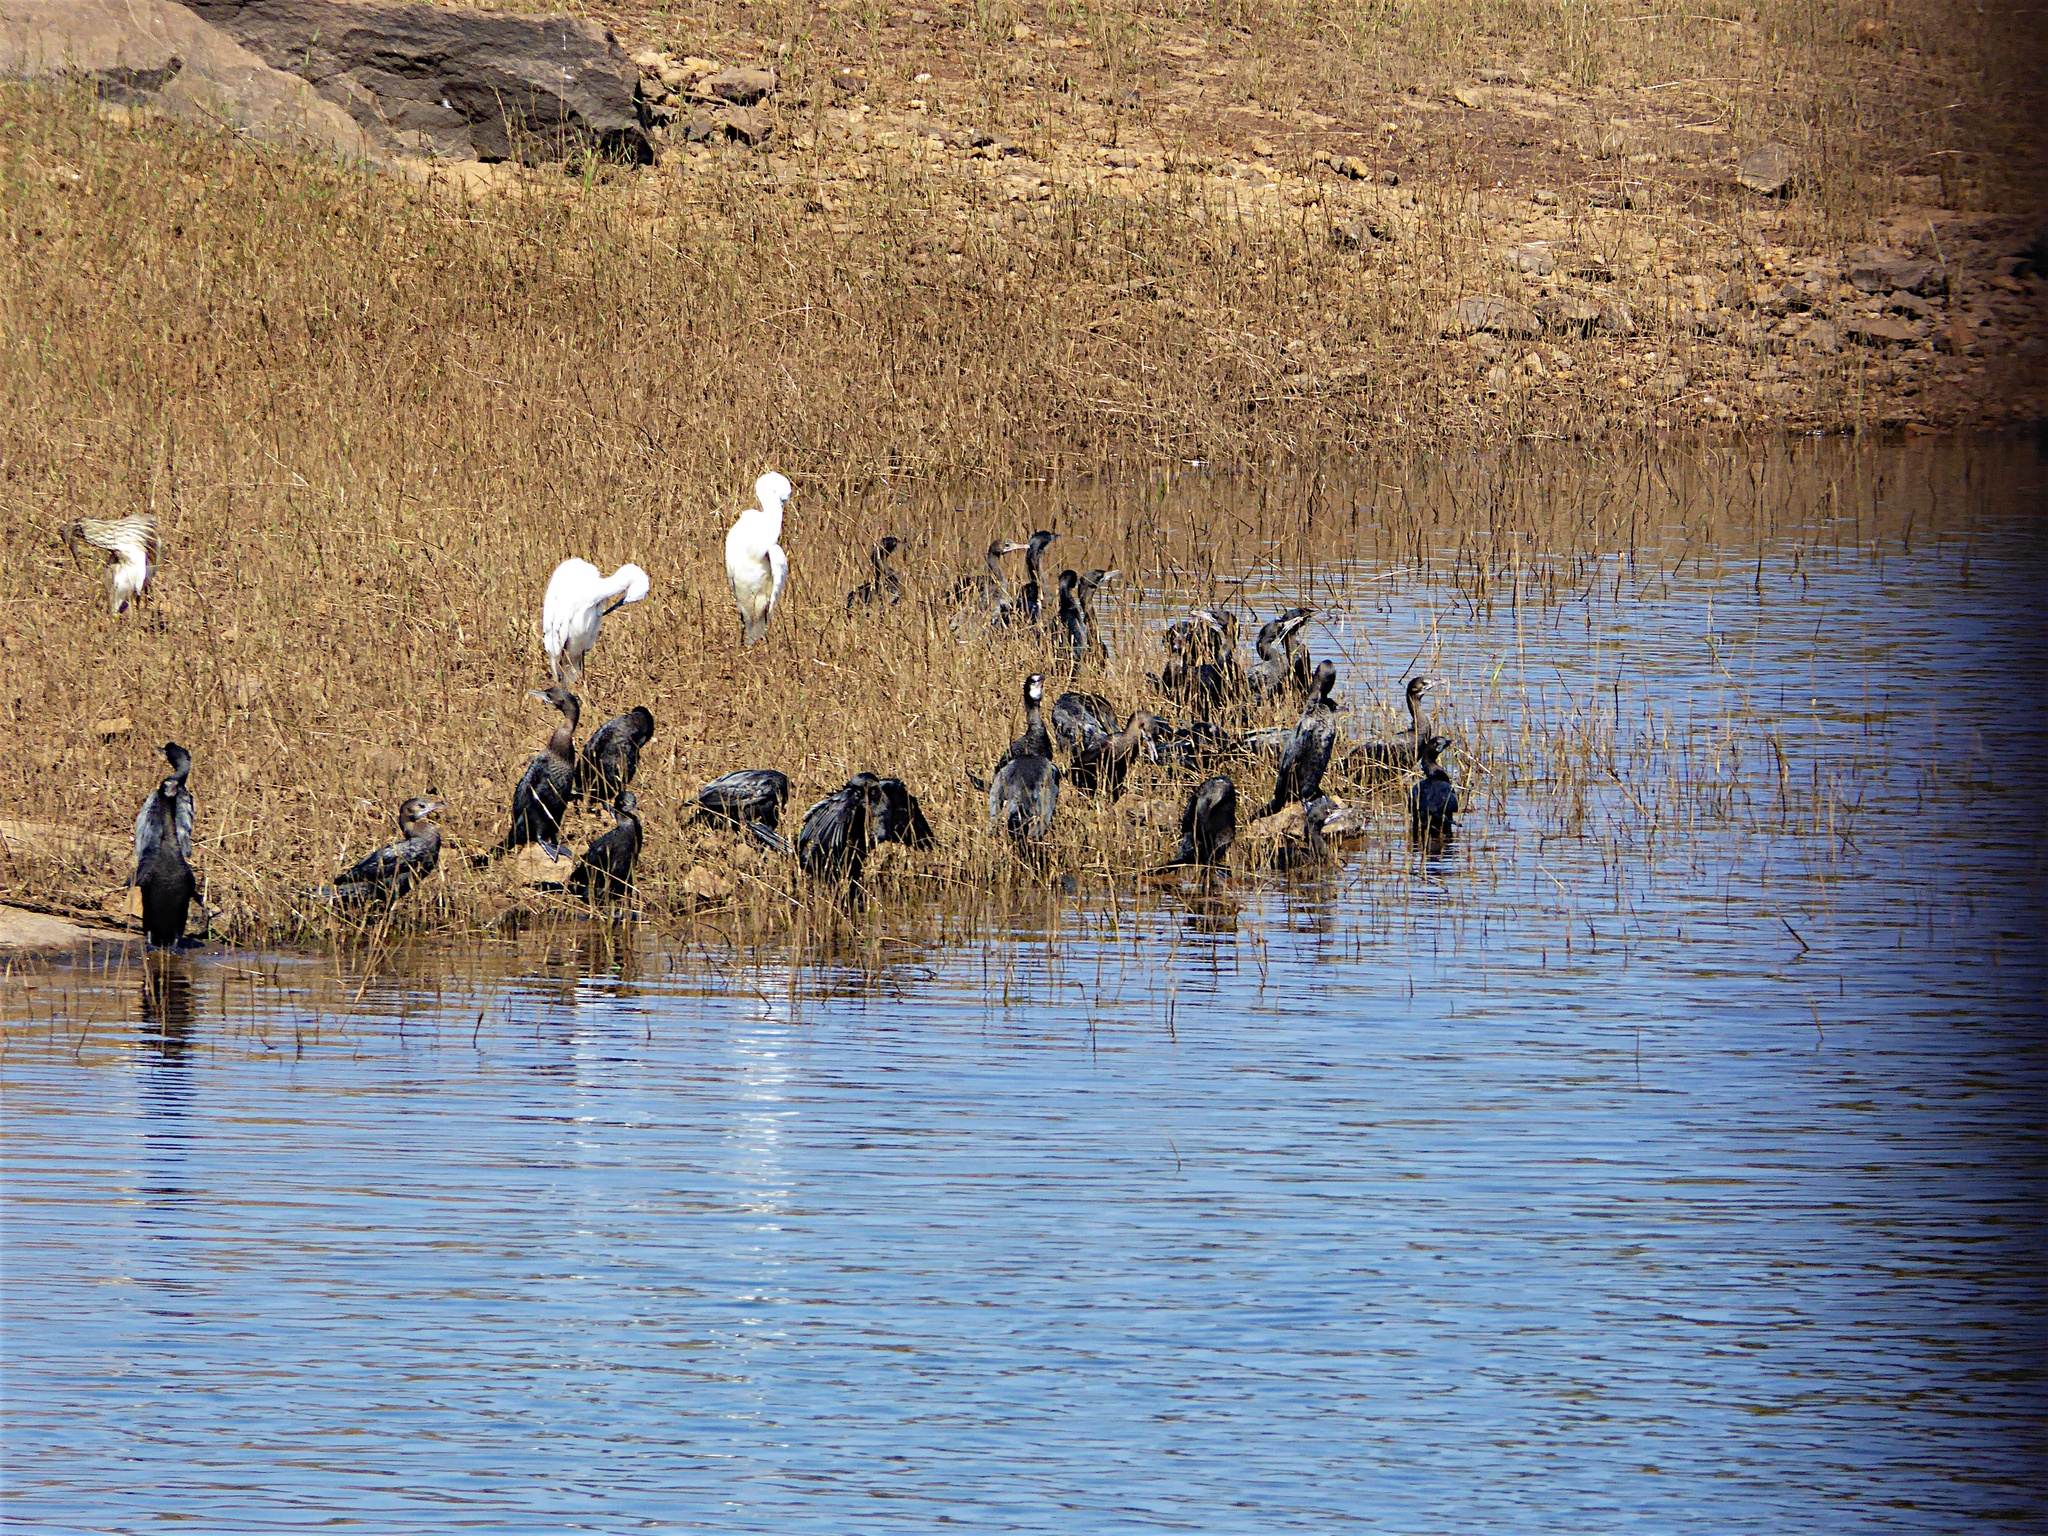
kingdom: Animalia
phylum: Chordata
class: Aves
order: Suliformes
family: Phalacrocoracidae
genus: Microcarbo
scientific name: Microcarbo niger
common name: Little cormorant
